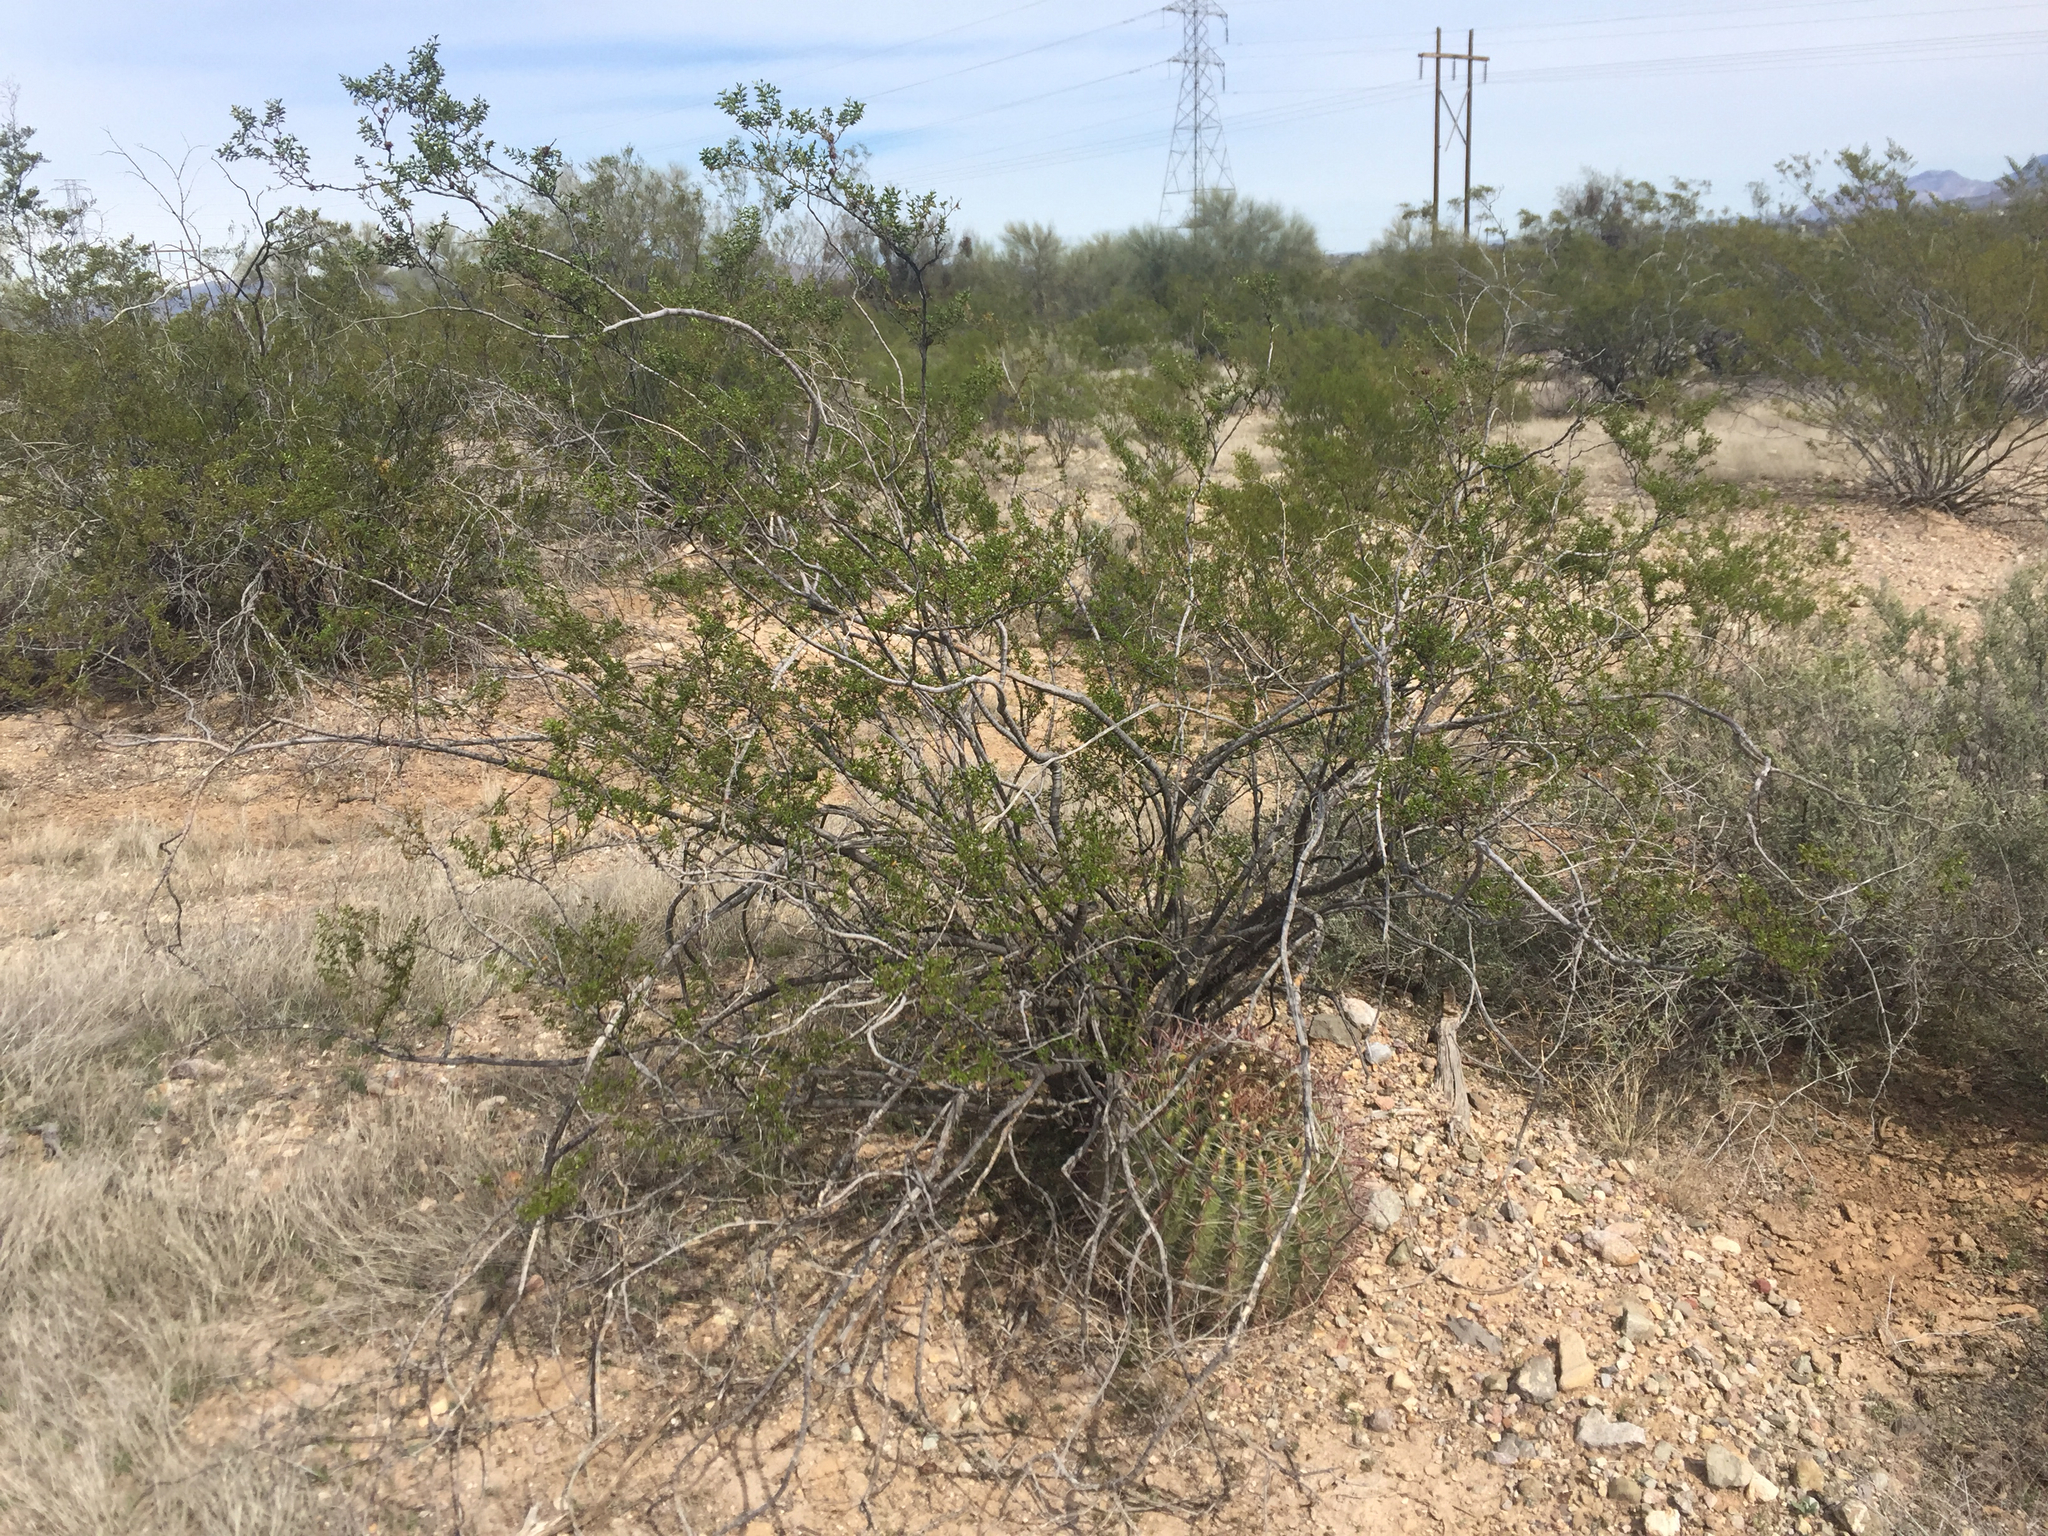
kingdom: Plantae
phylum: Tracheophyta
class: Magnoliopsida
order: Zygophyllales
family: Zygophyllaceae
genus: Larrea
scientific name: Larrea tridentata
